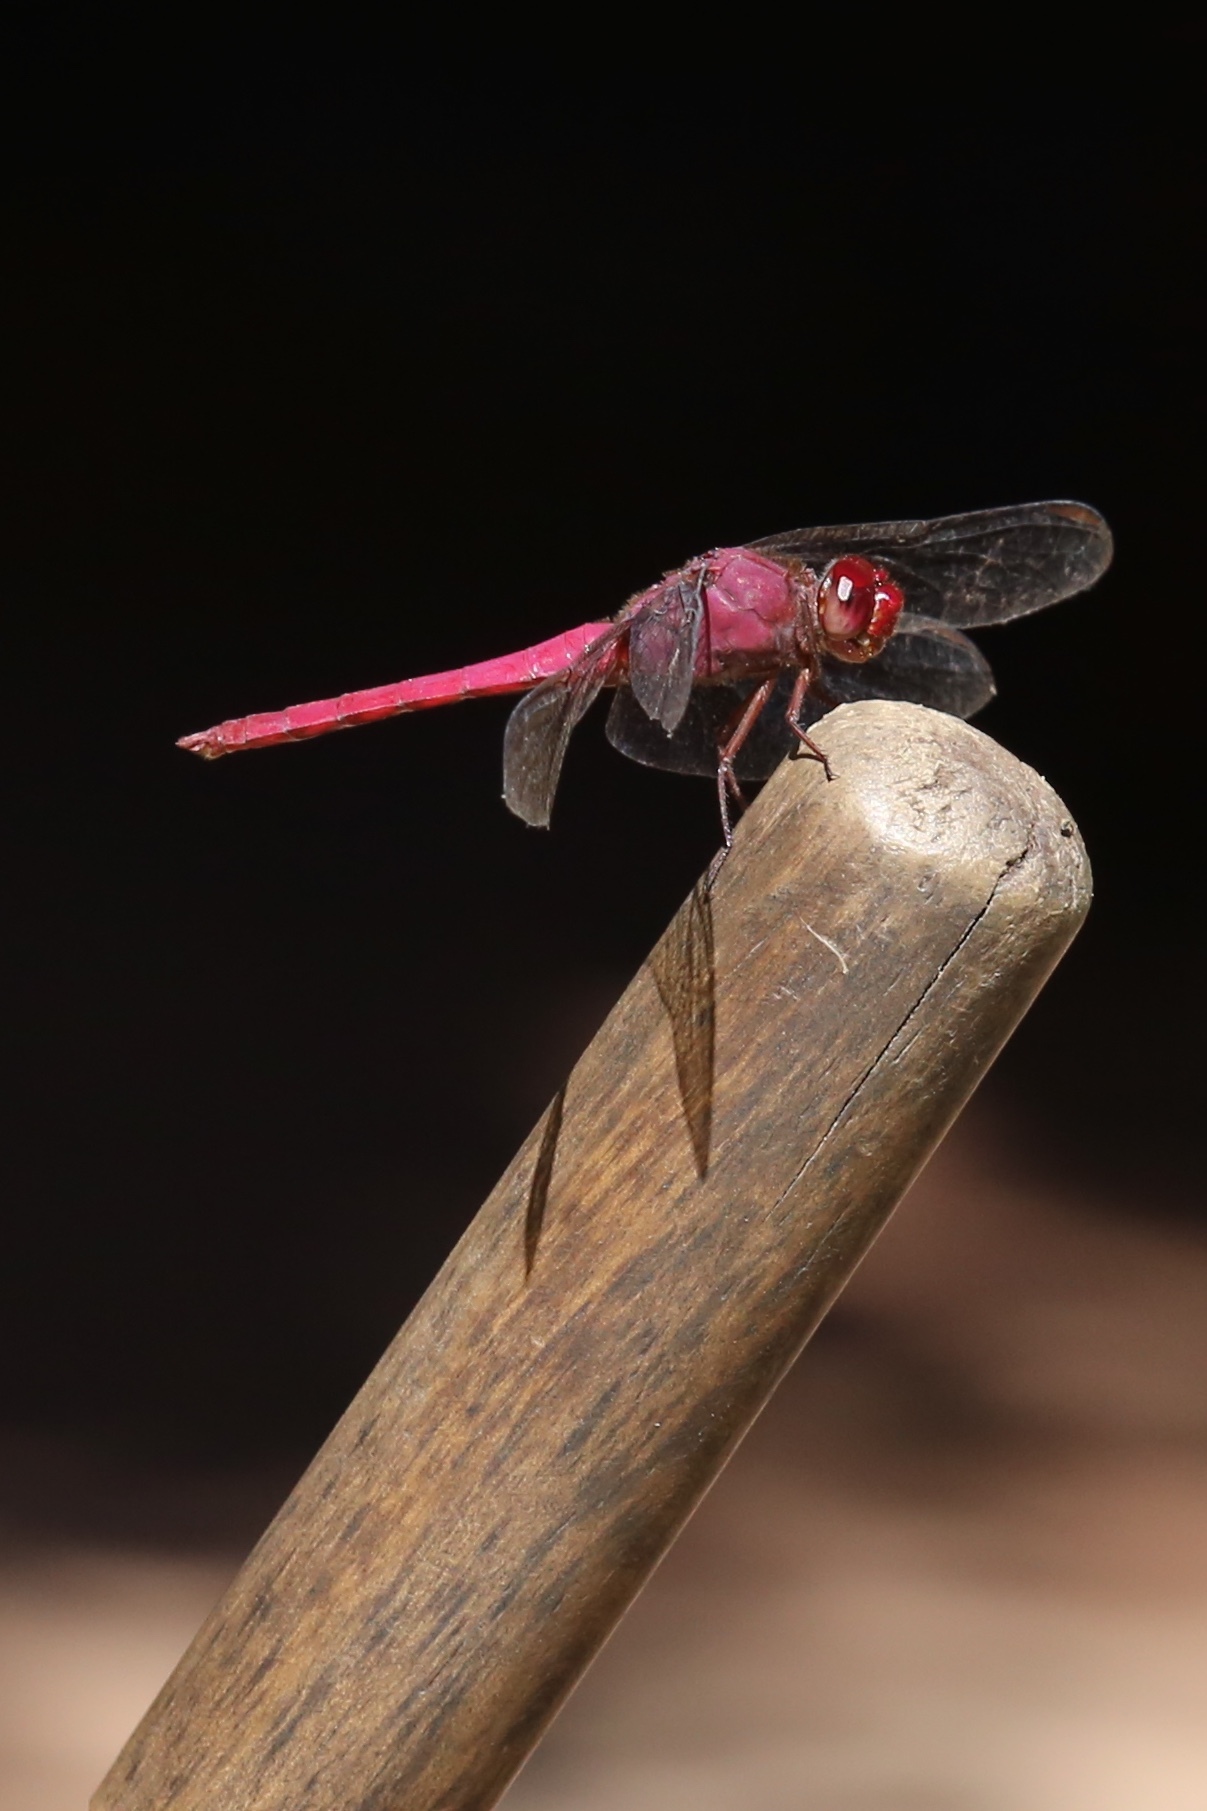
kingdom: Animalia
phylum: Arthropoda
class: Insecta
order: Odonata
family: Libellulidae
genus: Orthemis
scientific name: Orthemis discolor
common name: Carmine skimmer
